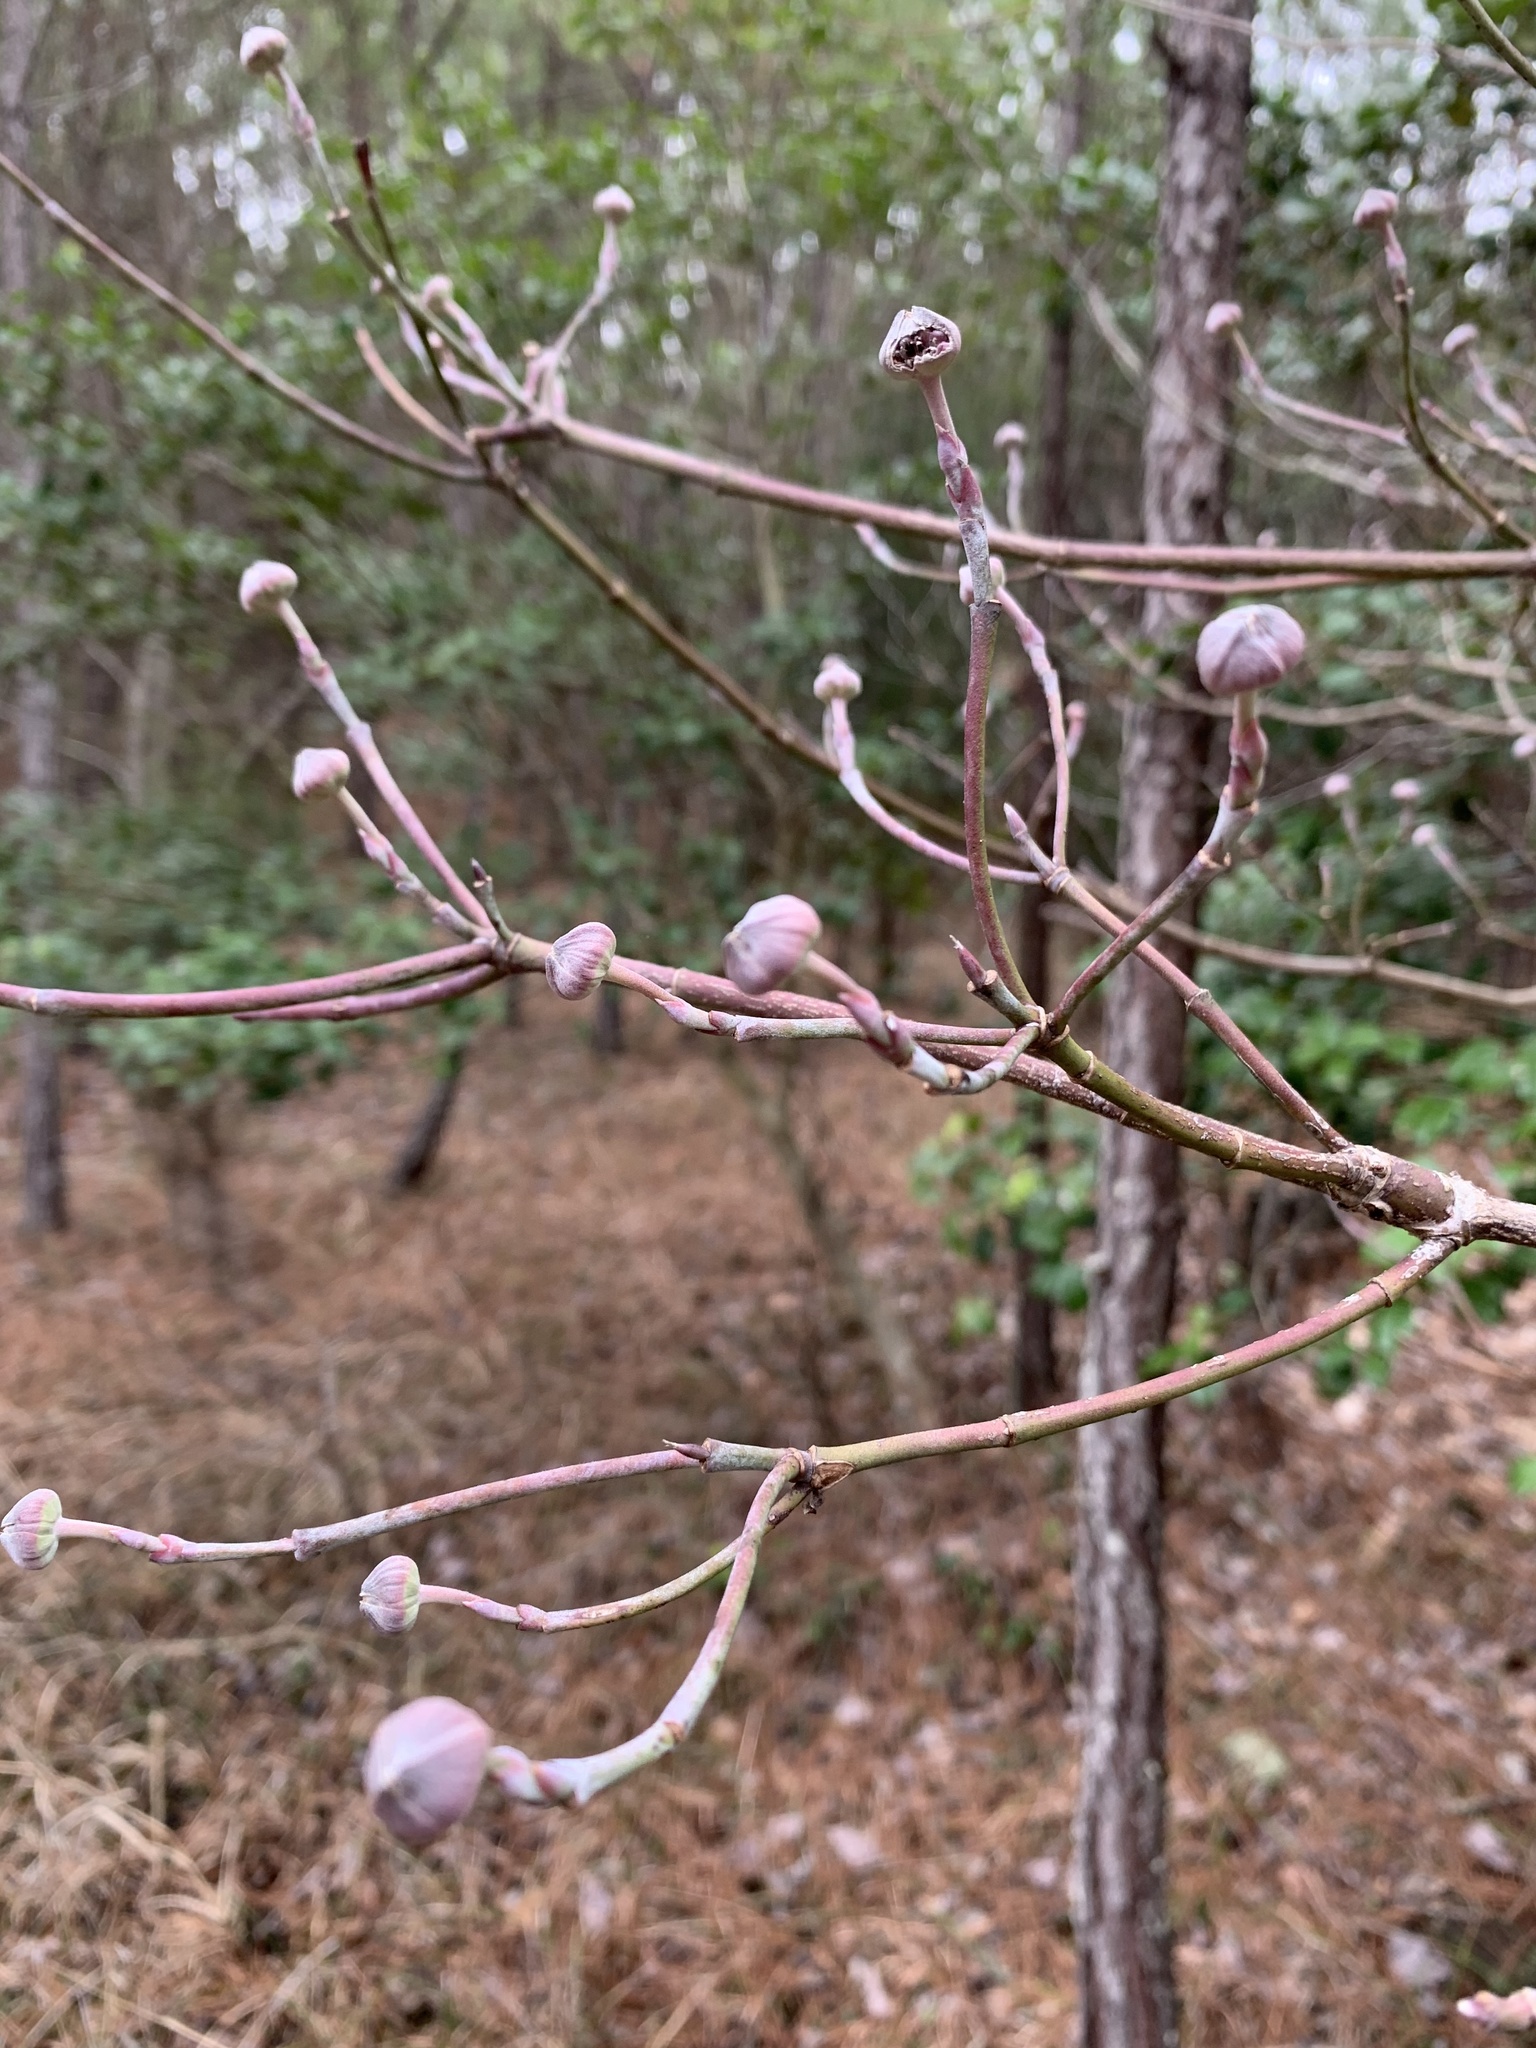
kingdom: Plantae
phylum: Tracheophyta
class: Magnoliopsida
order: Cornales
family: Cornaceae
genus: Cornus
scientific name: Cornus florida
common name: Flowering dogwood
